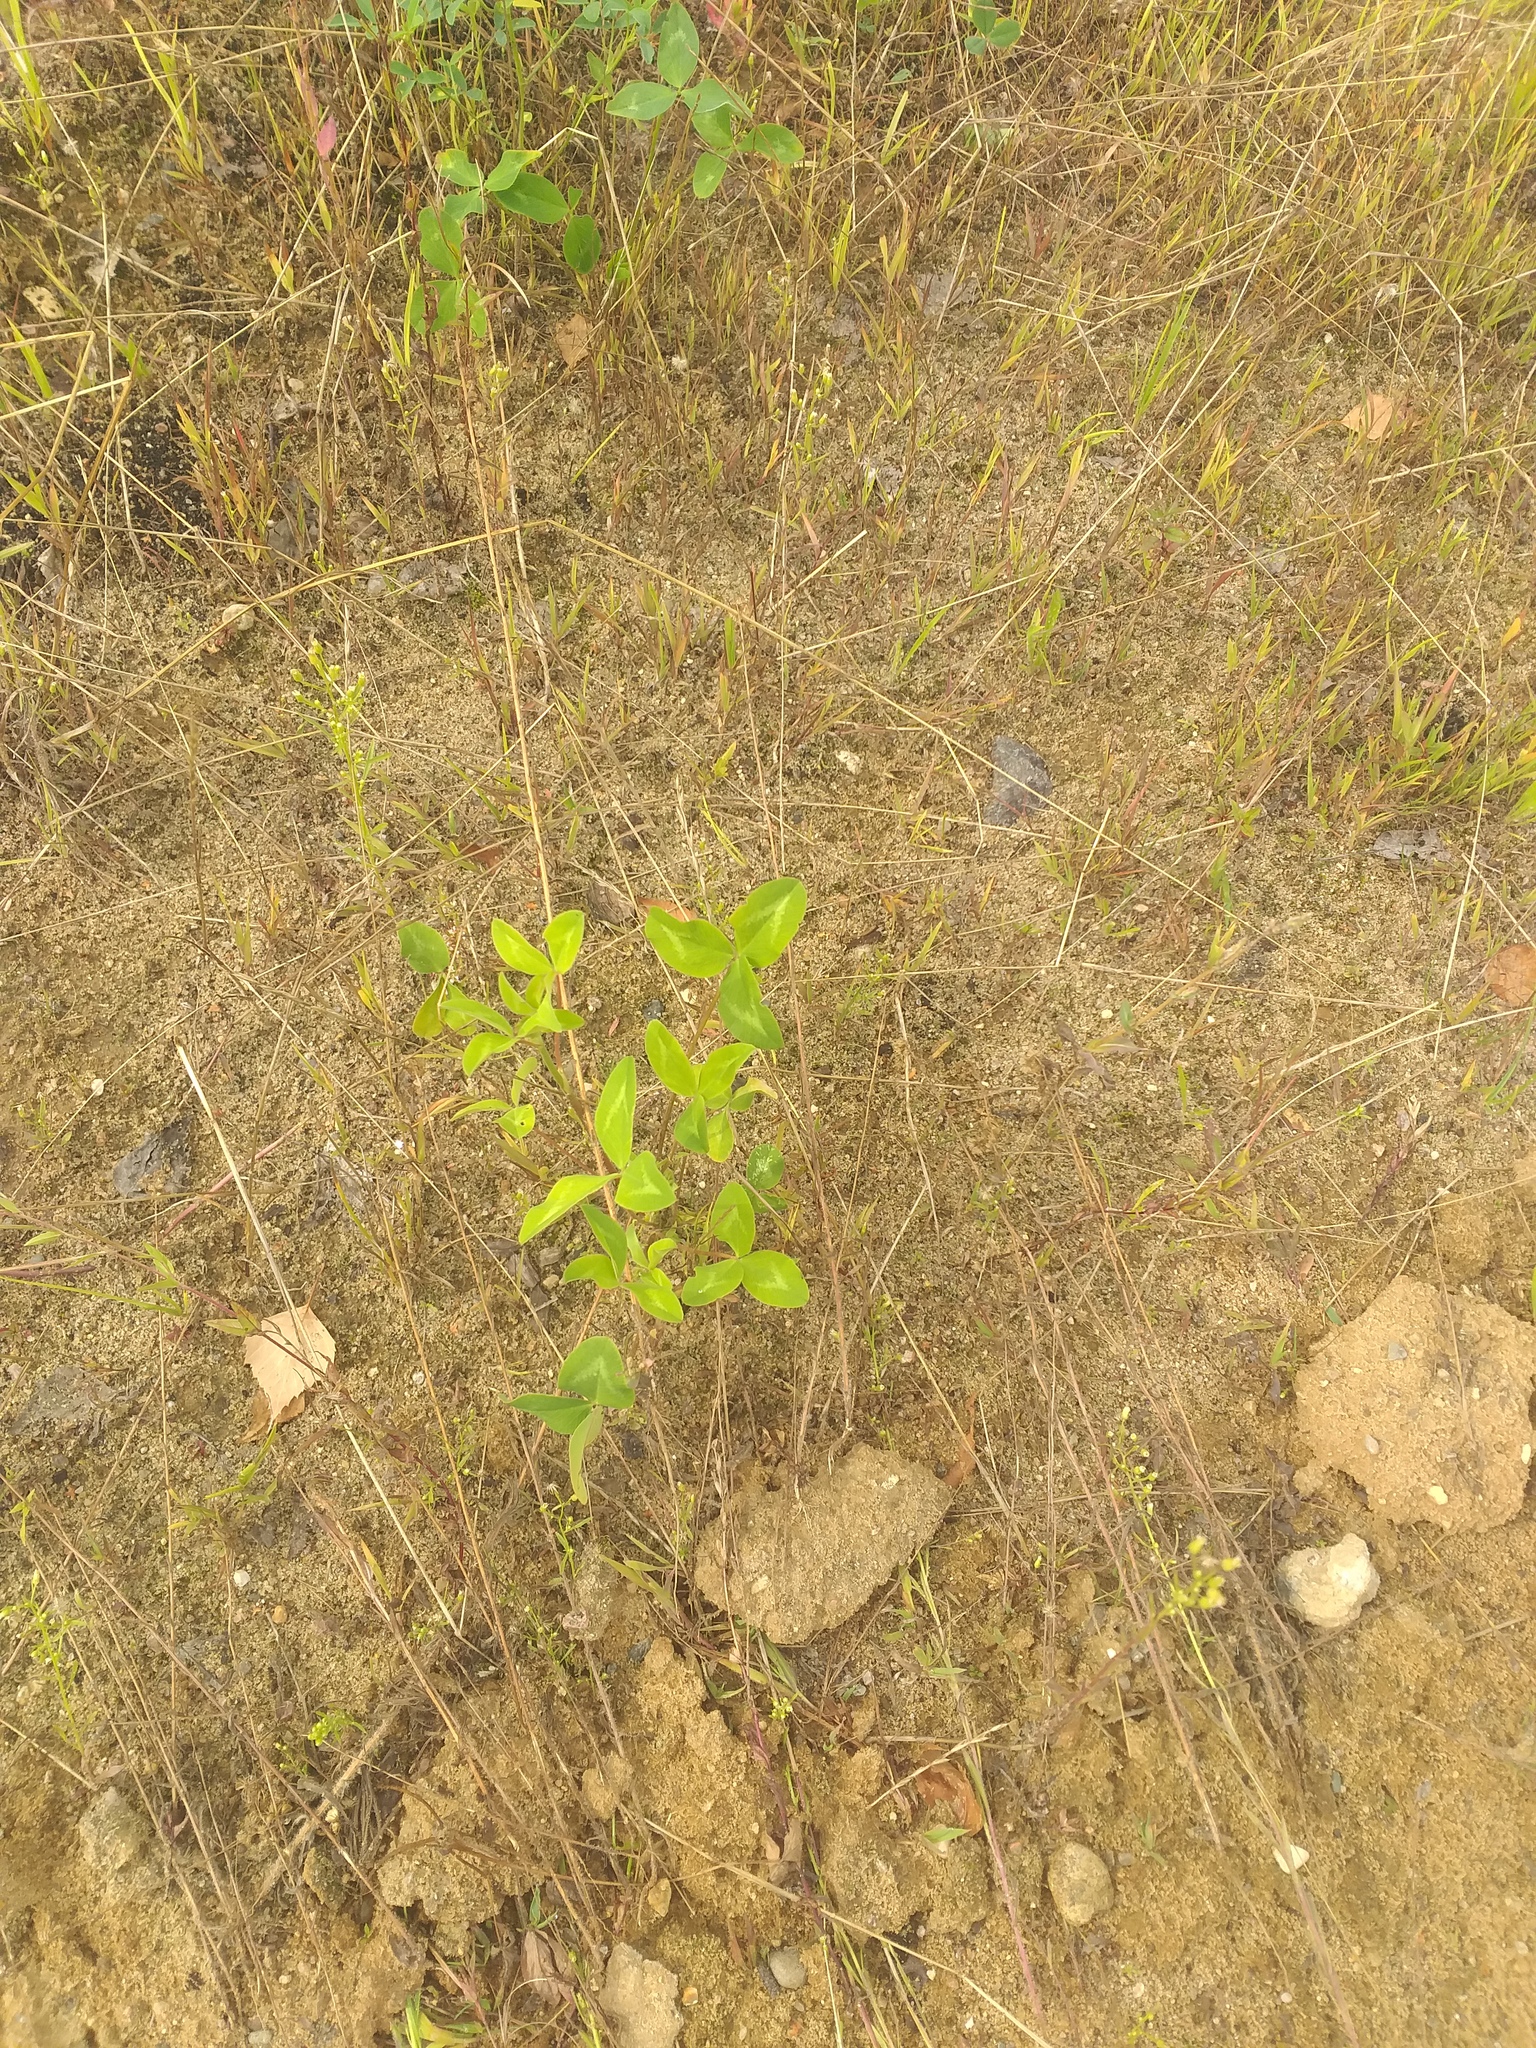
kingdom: Plantae
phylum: Tracheophyta
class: Magnoliopsida
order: Fabales
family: Fabaceae
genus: Trifolium
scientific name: Trifolium pratense
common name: Red clover
